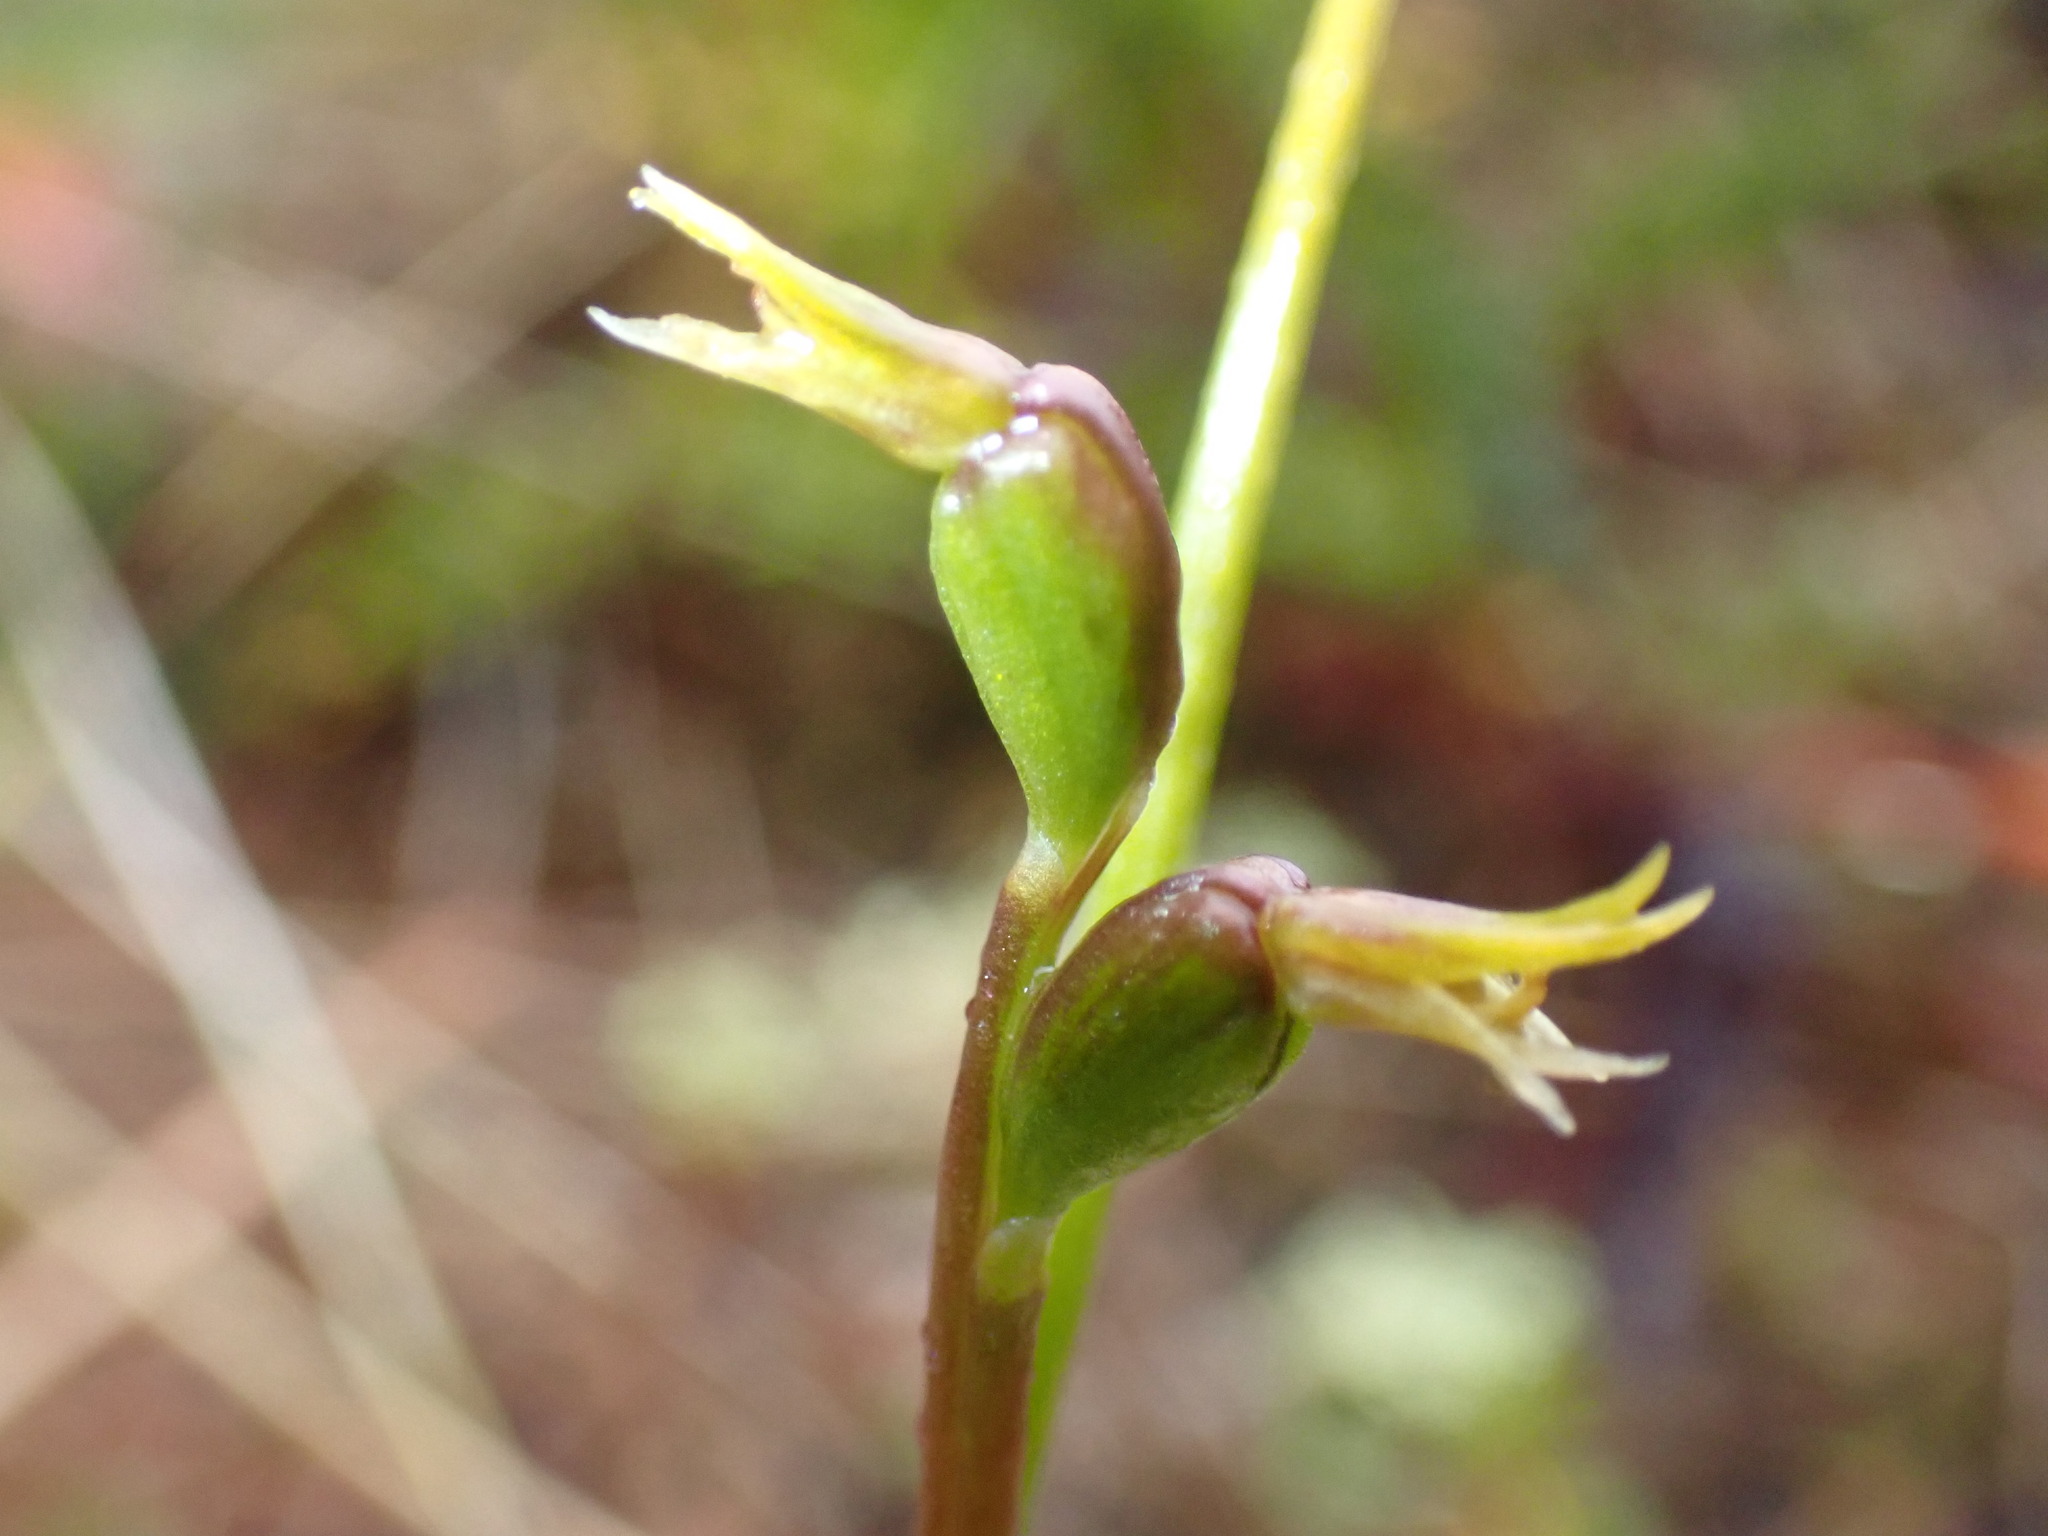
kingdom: Plantae
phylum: Tracheophyta
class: Liliopsida
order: Asparagales
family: Orchidaceae
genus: Prasophyllum
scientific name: Prasophyllum colensoi
